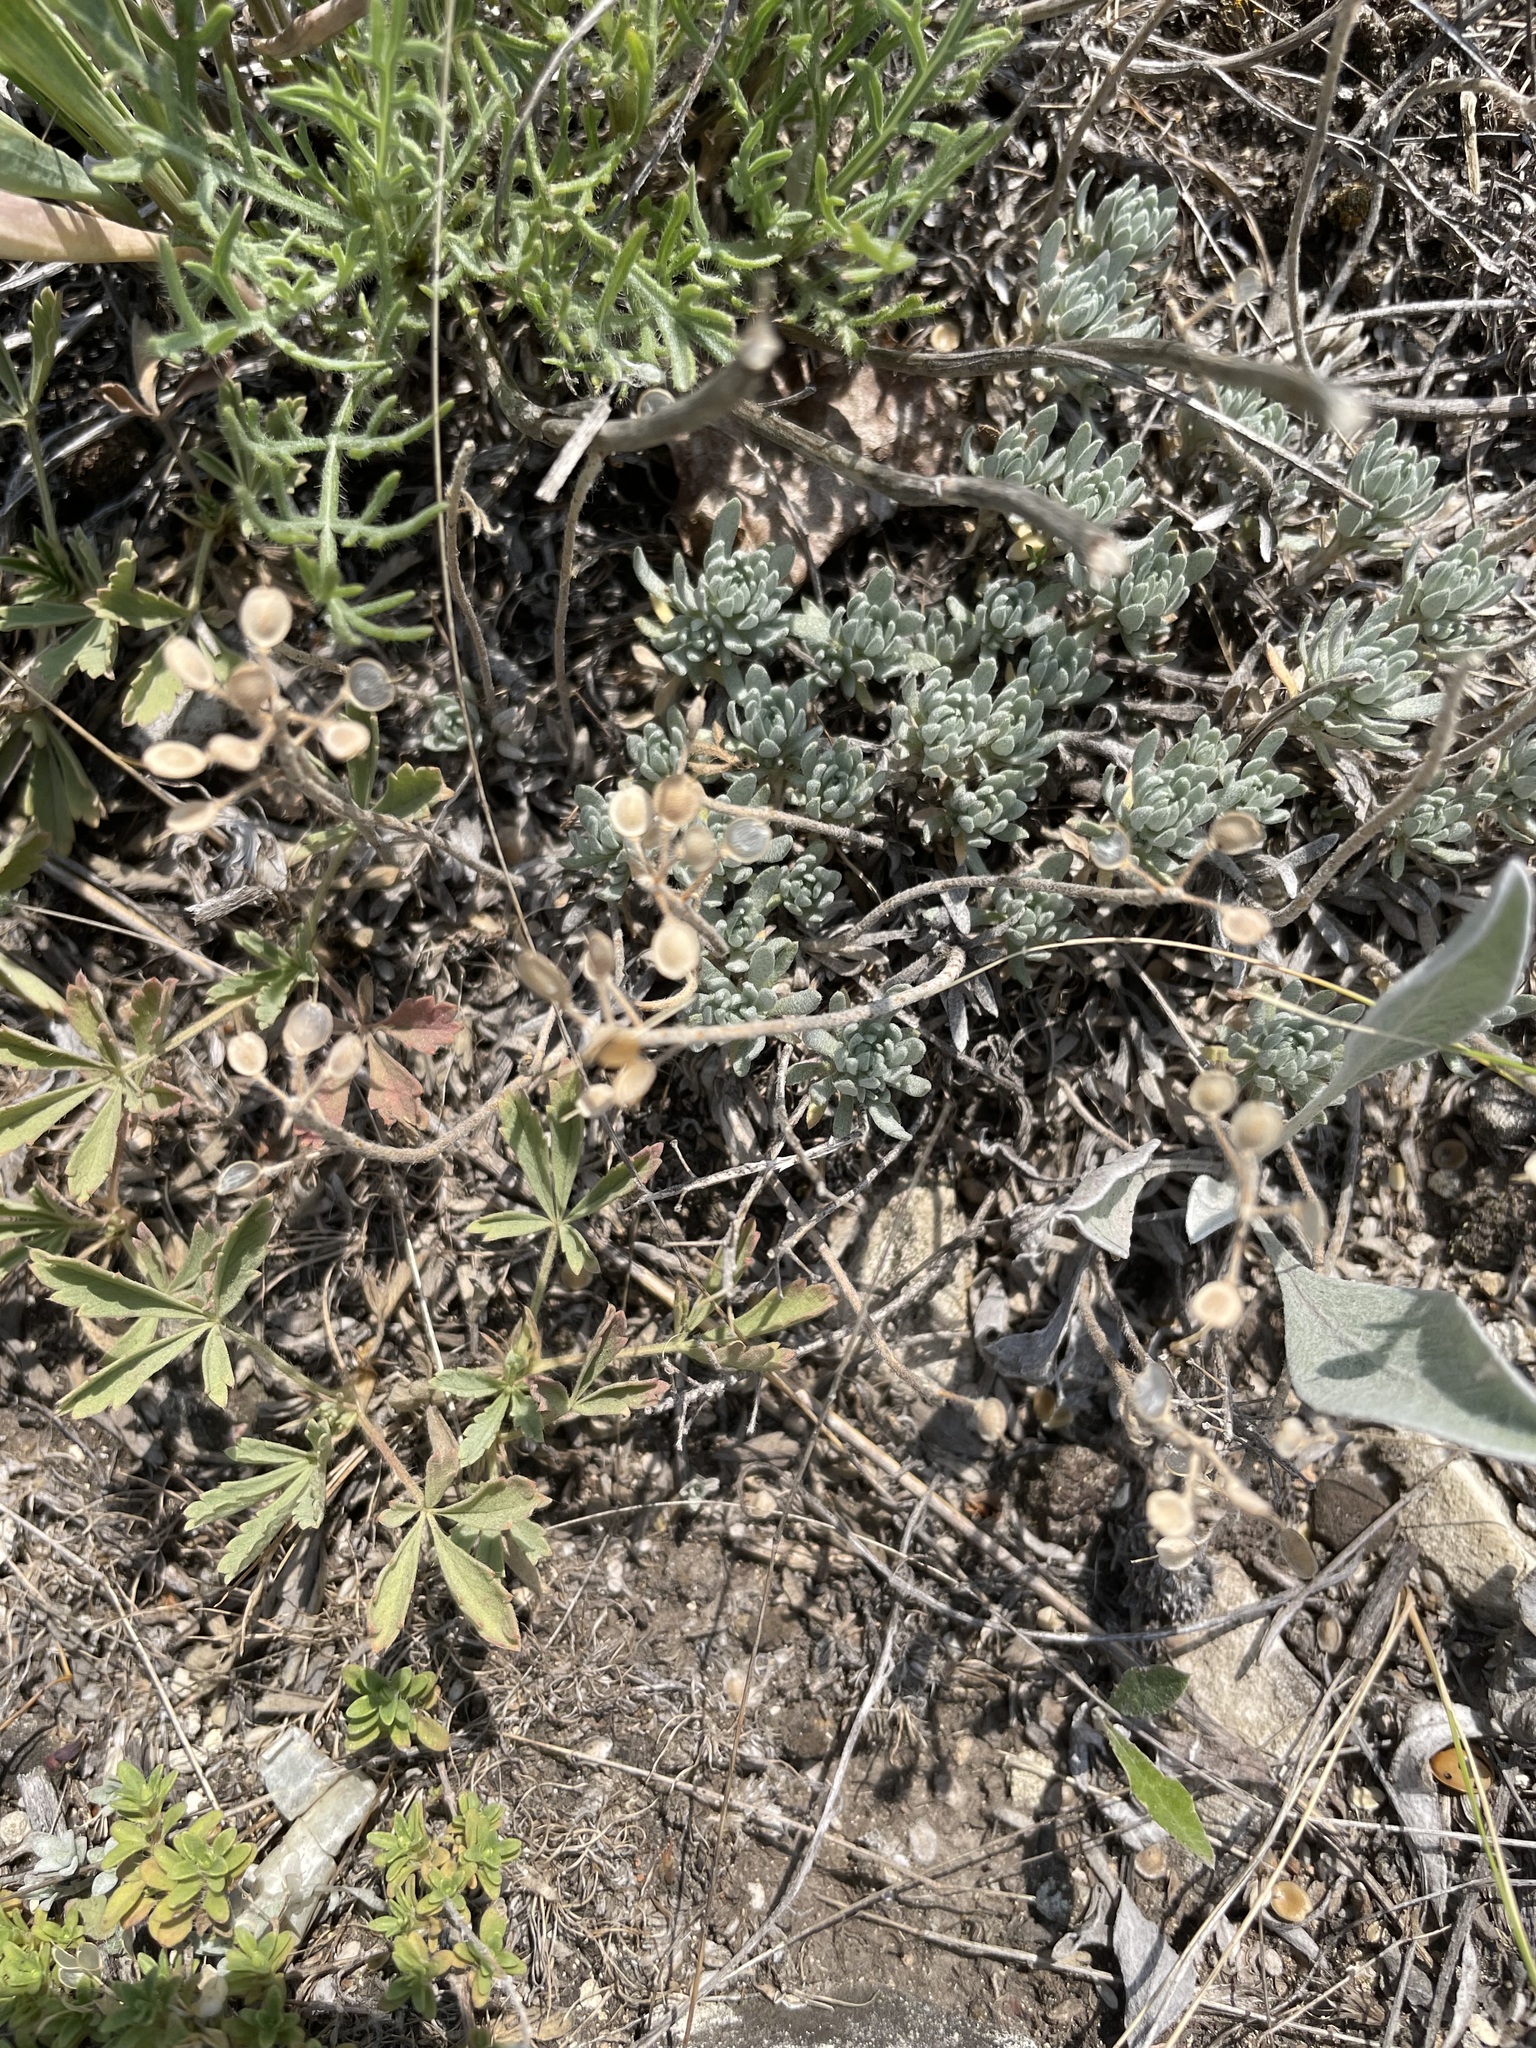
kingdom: Plantae
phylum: Tracheophyta
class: Magnoliopsida
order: Brassicales
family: Brassicaceae
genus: Alyssum
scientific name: Alyssum lenense
